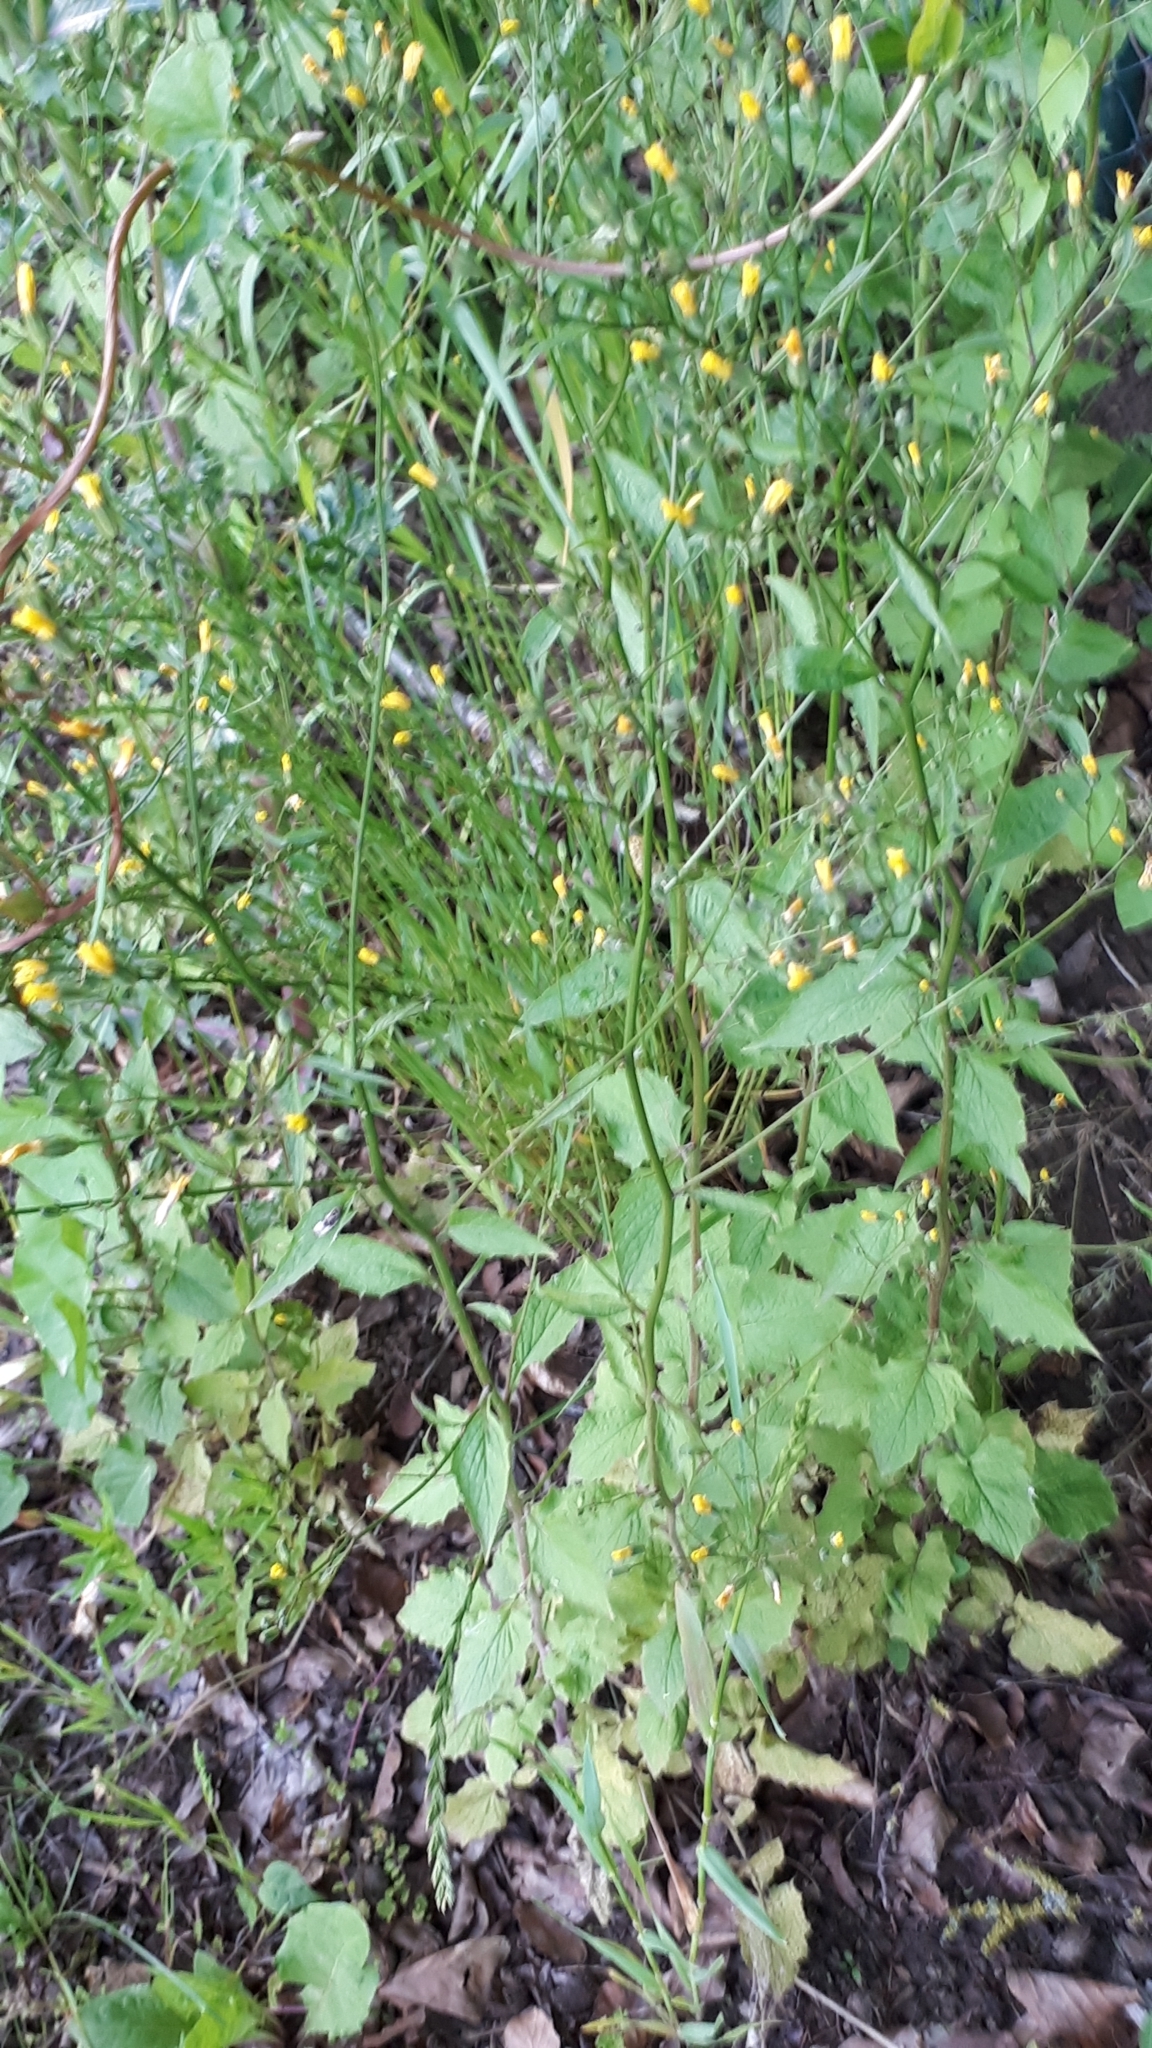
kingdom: Plantae
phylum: Tracheophyta
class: Magnoliopsida
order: Asterales
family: Asteraceae
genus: Lapsana
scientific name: Lapsana communis
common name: Nipplewort
